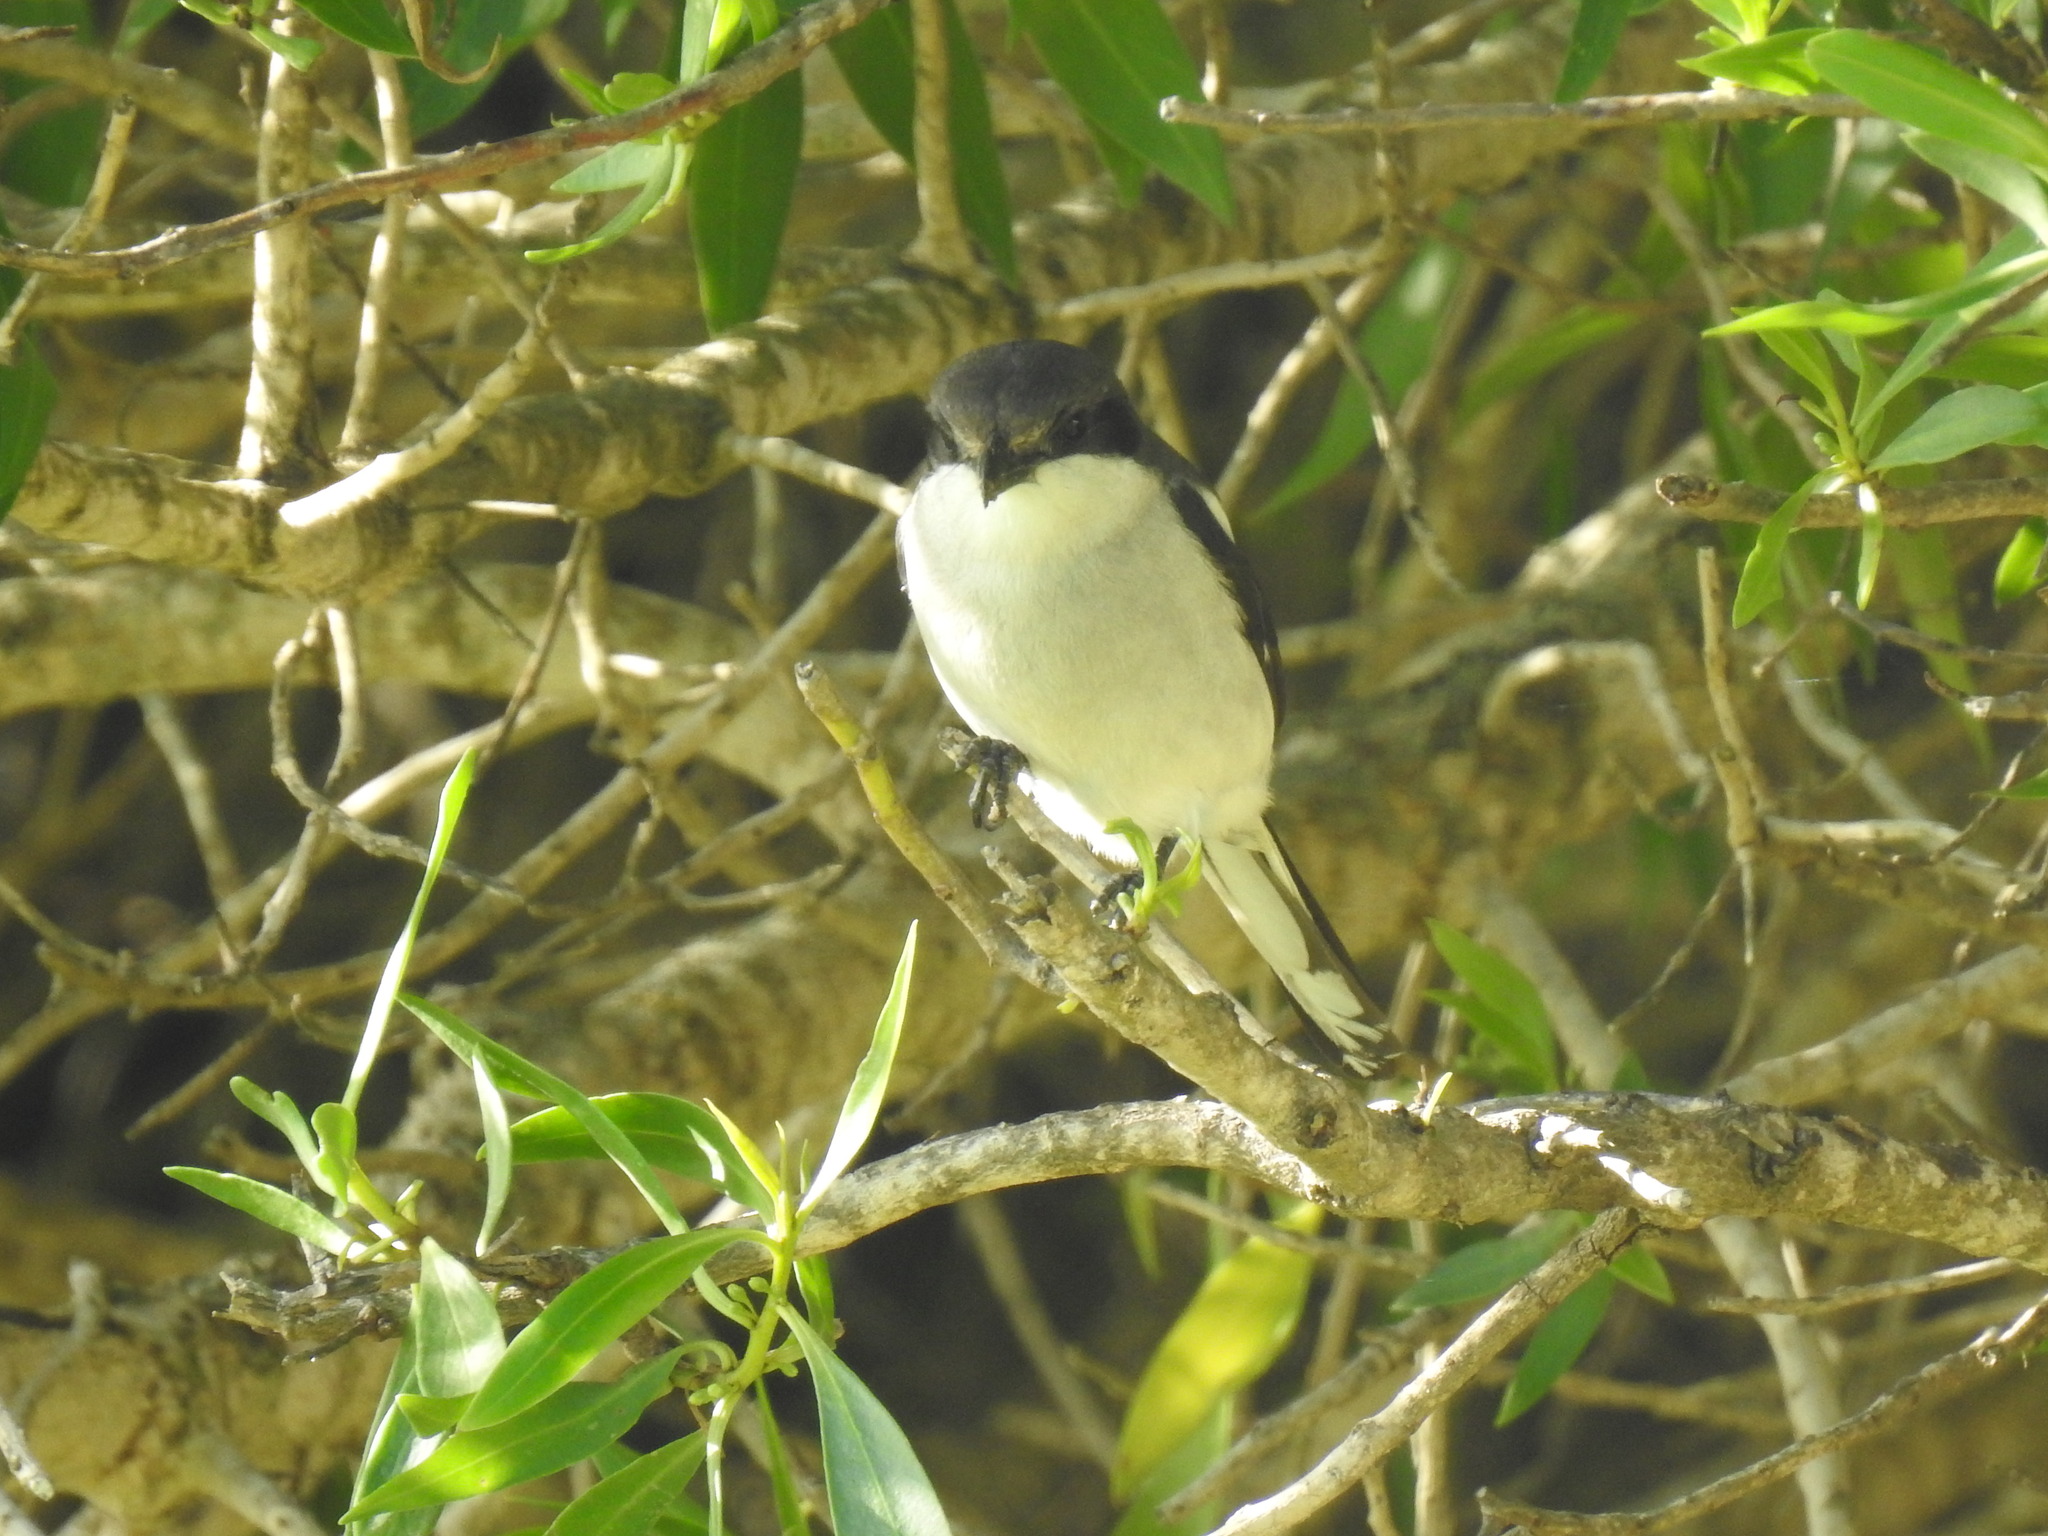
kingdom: Animalia
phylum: Chordata
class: Aves
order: Passeriformes
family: Laniidae
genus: Lanius
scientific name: Lanius collaris
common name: Southern fiscal
